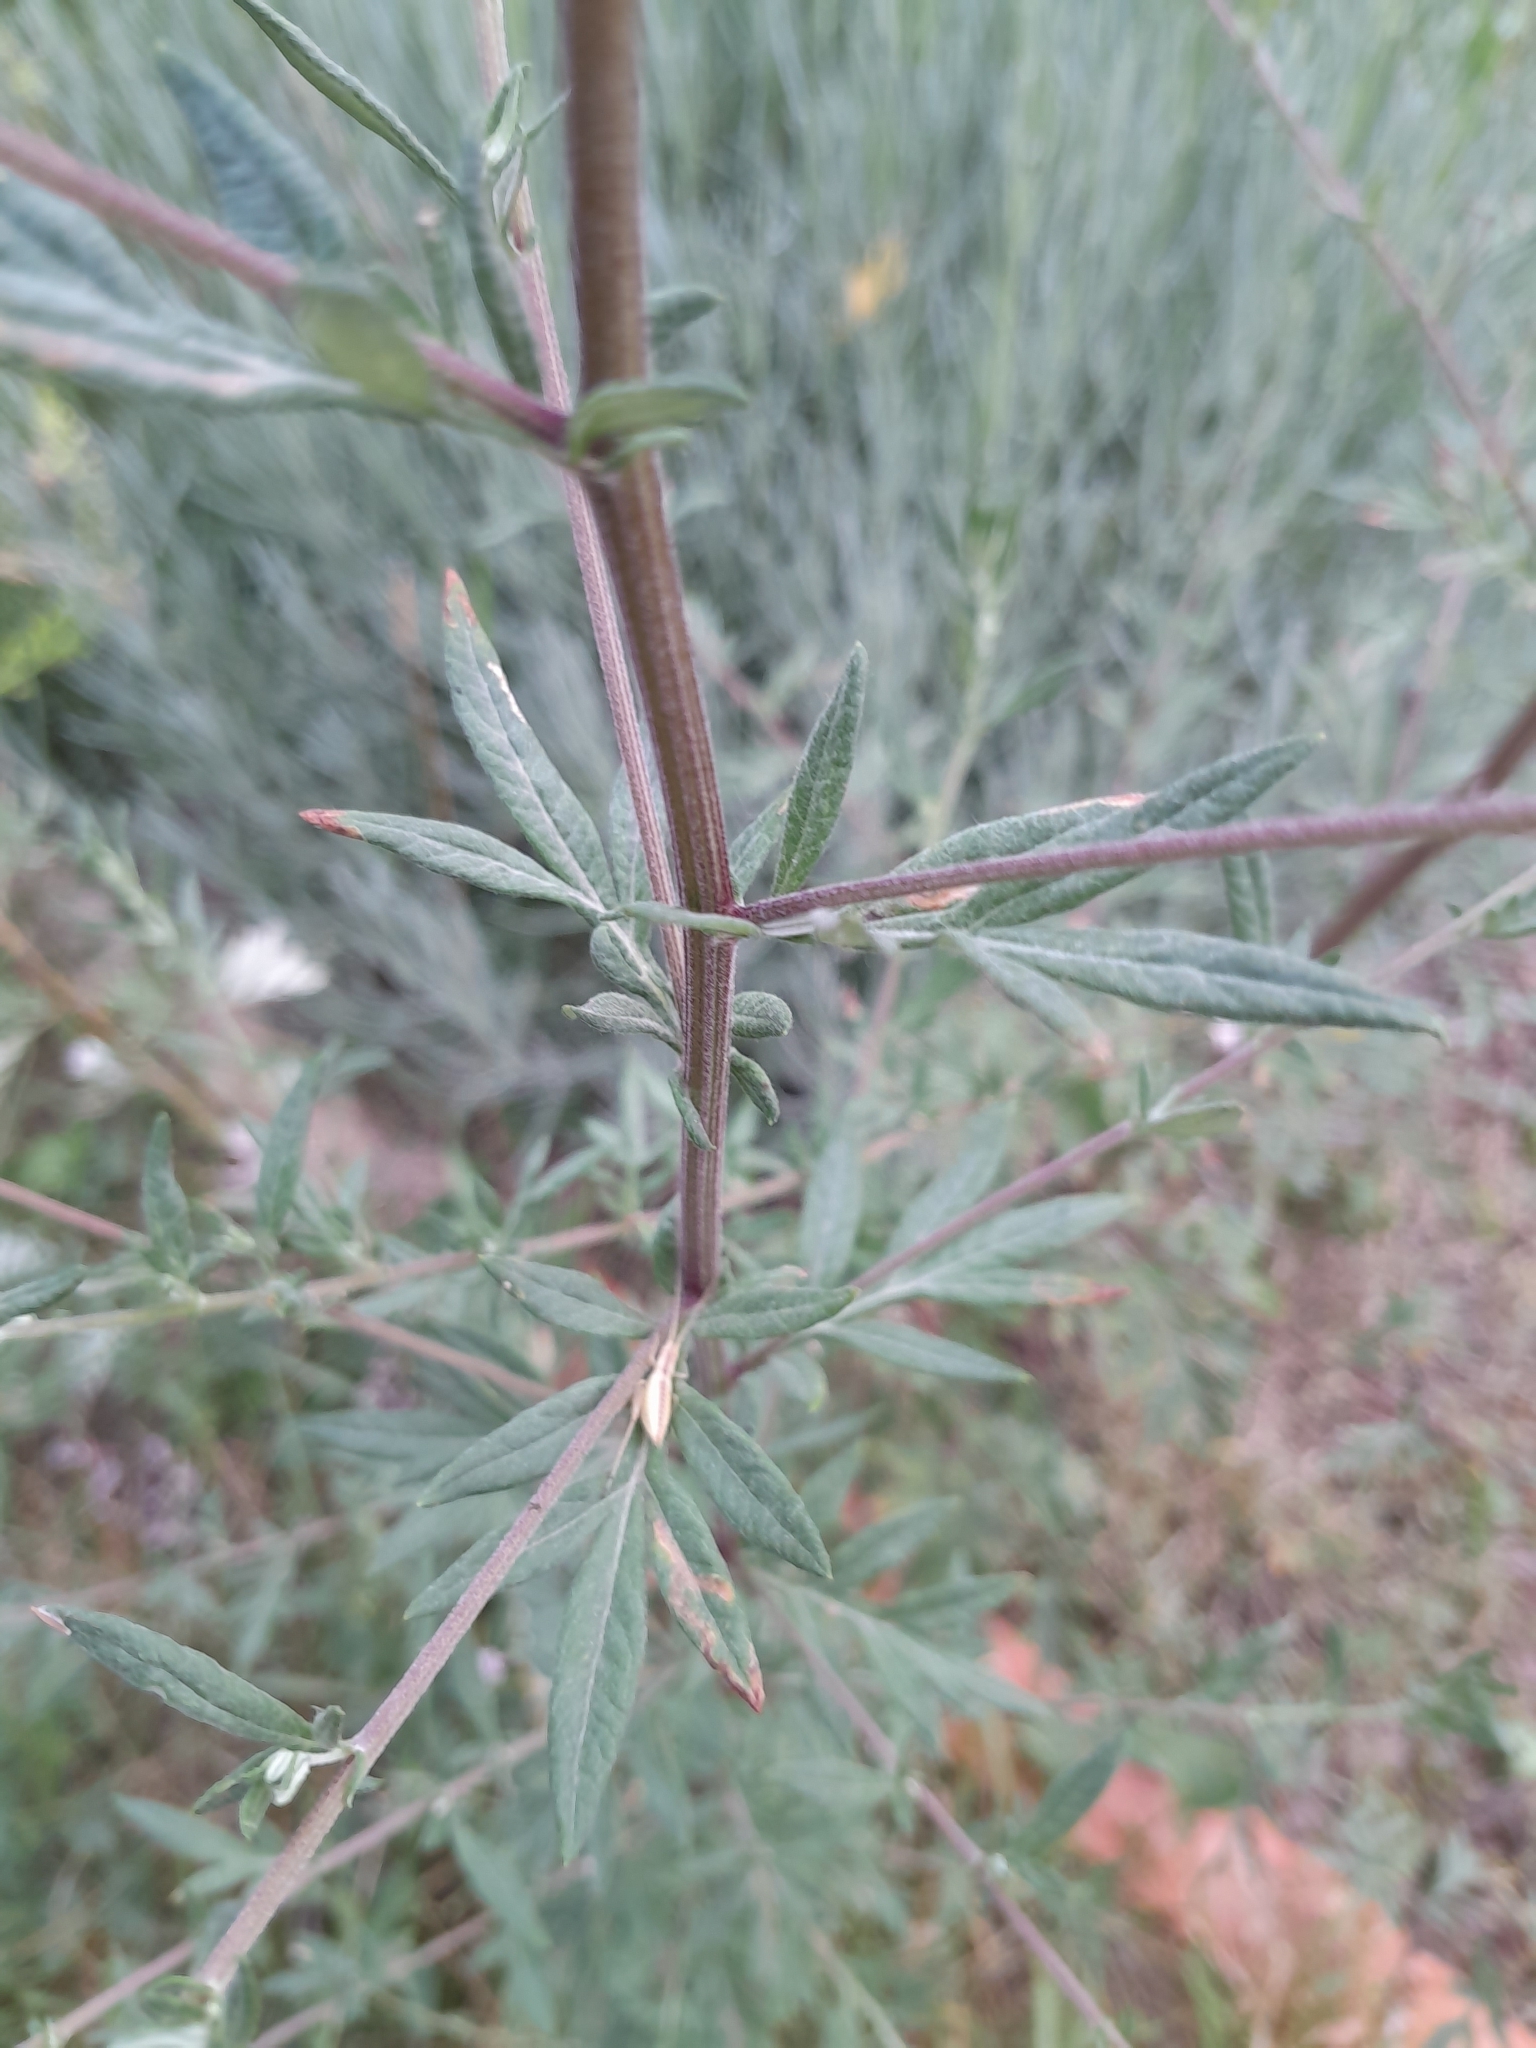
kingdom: Plantae
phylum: Tracheophyta
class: Magnoliopsida
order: Asterales
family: Asteraceae
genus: Artemisia
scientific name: Artemisia vulgaris
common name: Mugwort
